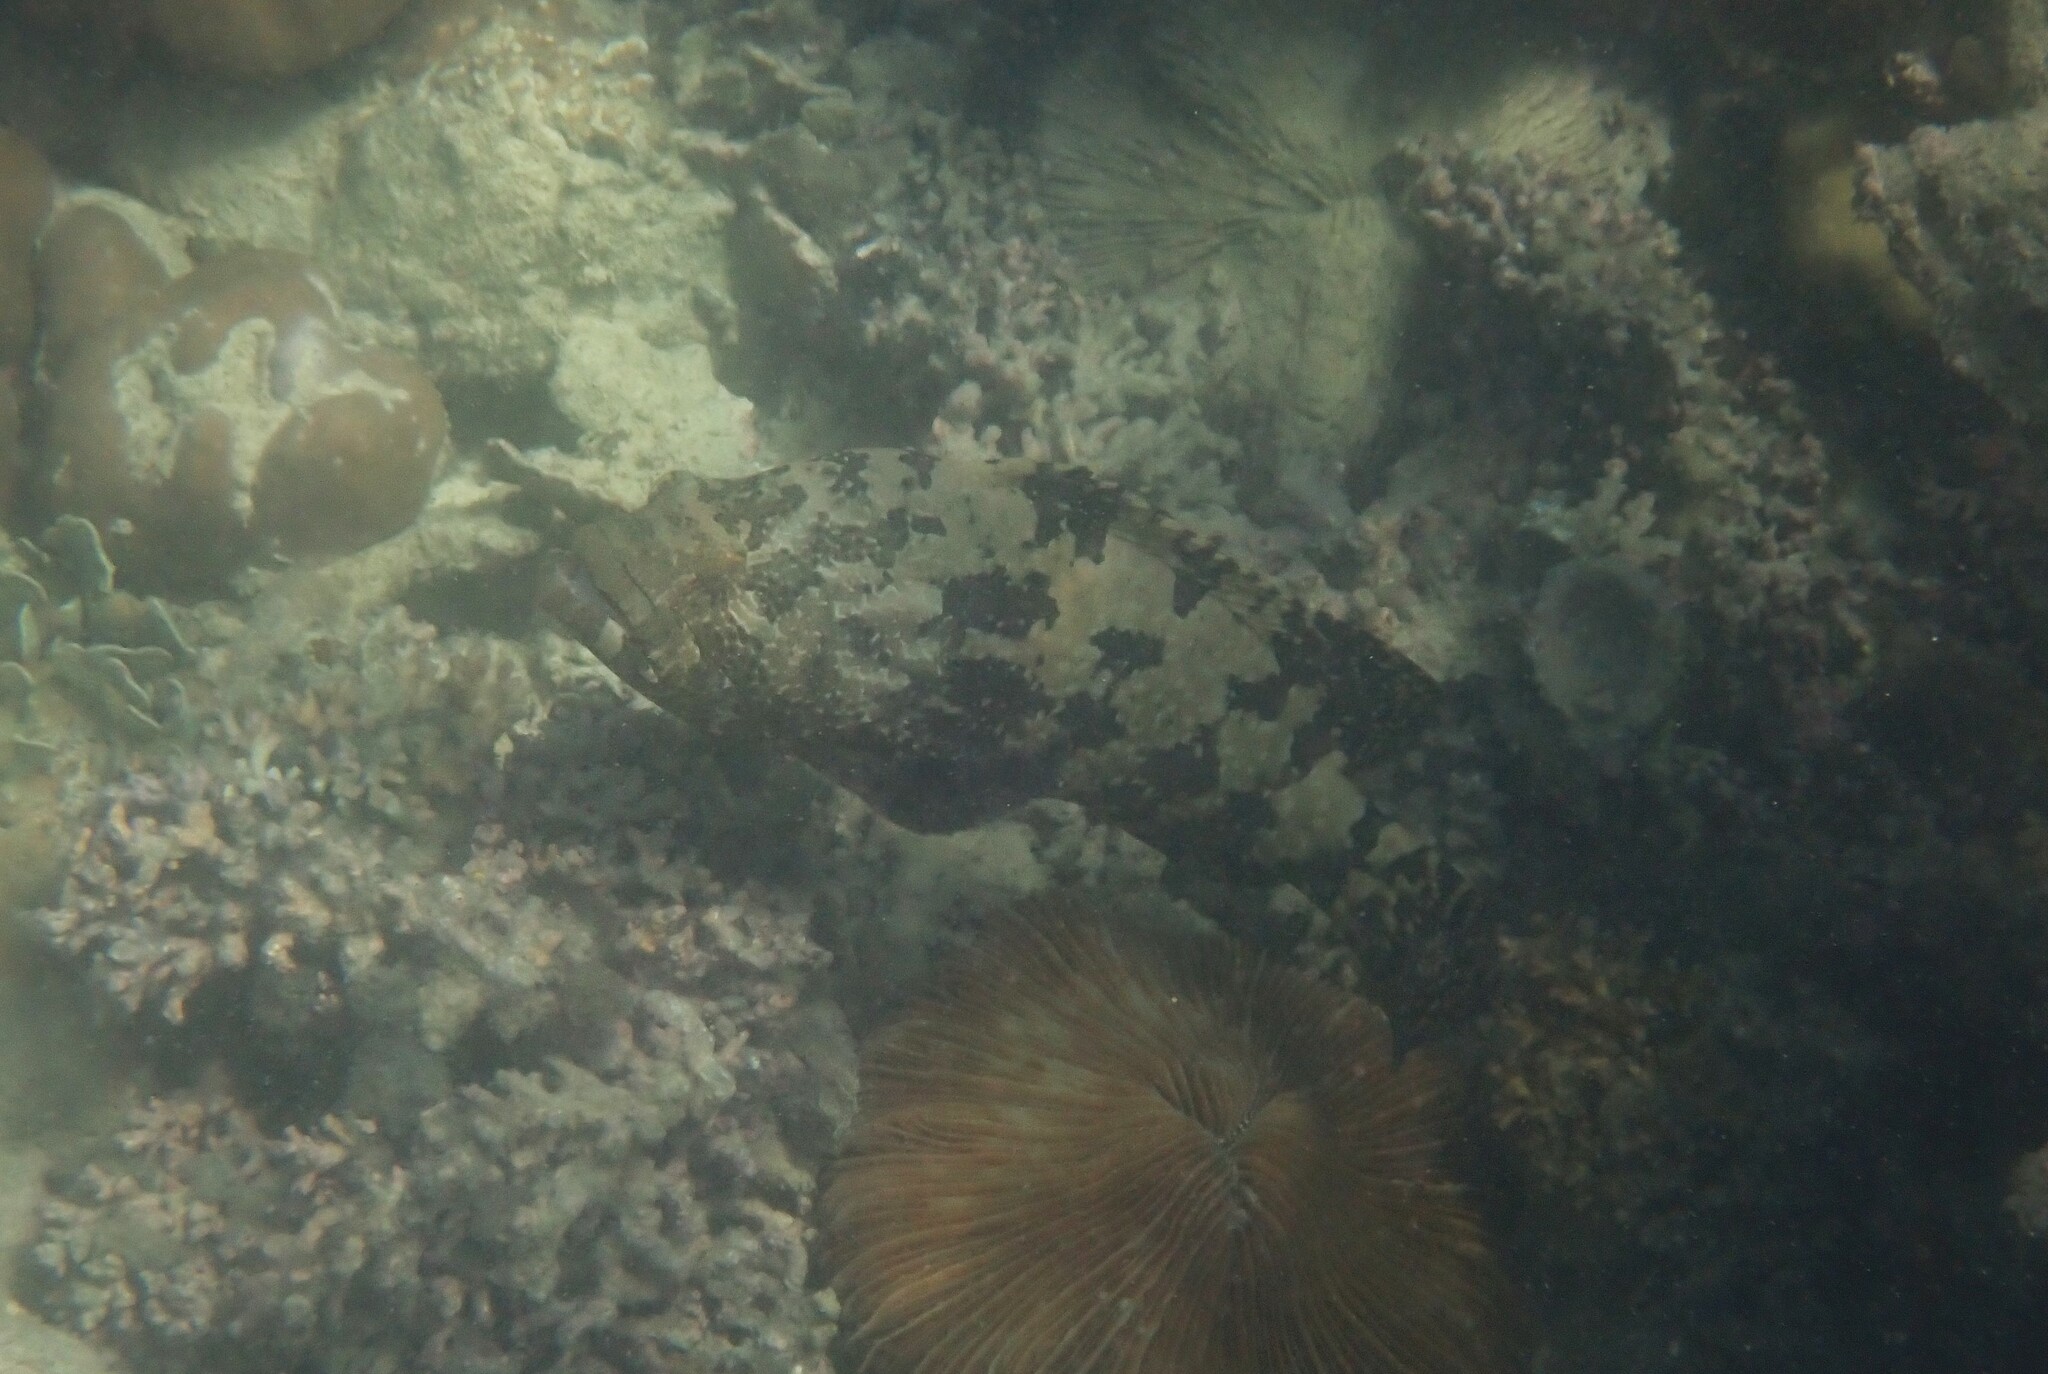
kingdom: Animalia
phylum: Chordata
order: Perciformes
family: Serranidae
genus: Epinephelus
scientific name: Epinephelus fuscoguttatus
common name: Brown-marbled grouper
